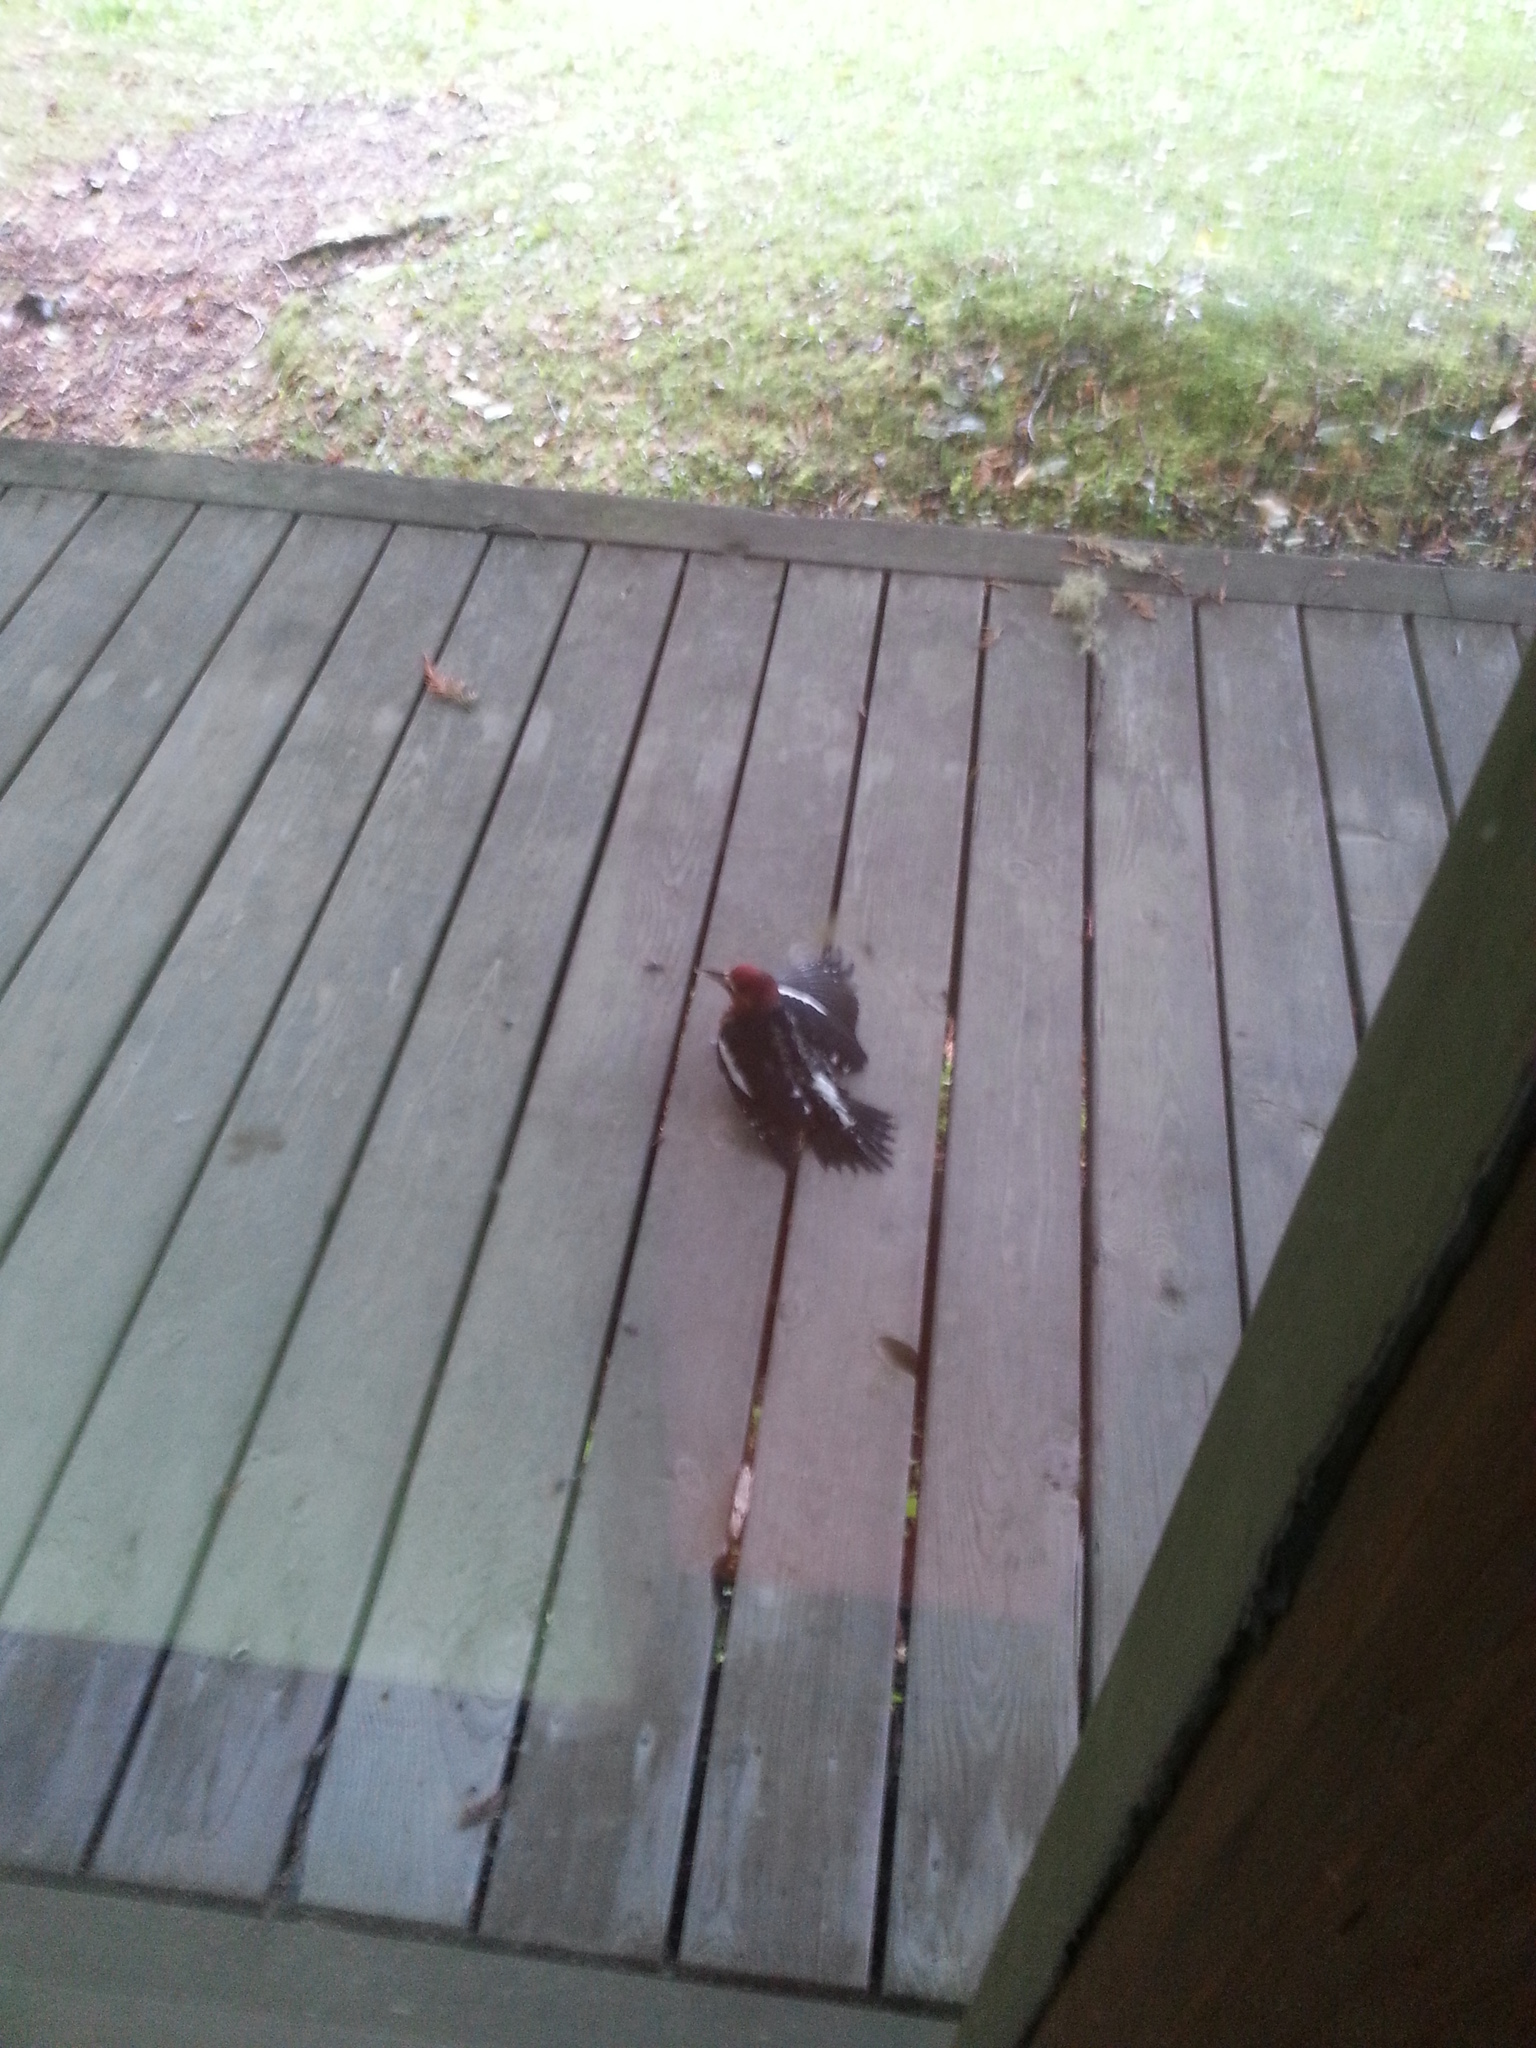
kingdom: Animalia
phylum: Chordata
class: Aves
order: Piciformes
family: Picidae
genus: Sphyrapicus
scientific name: Sphyrapicus ruber
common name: Red-breasted sapsucker
